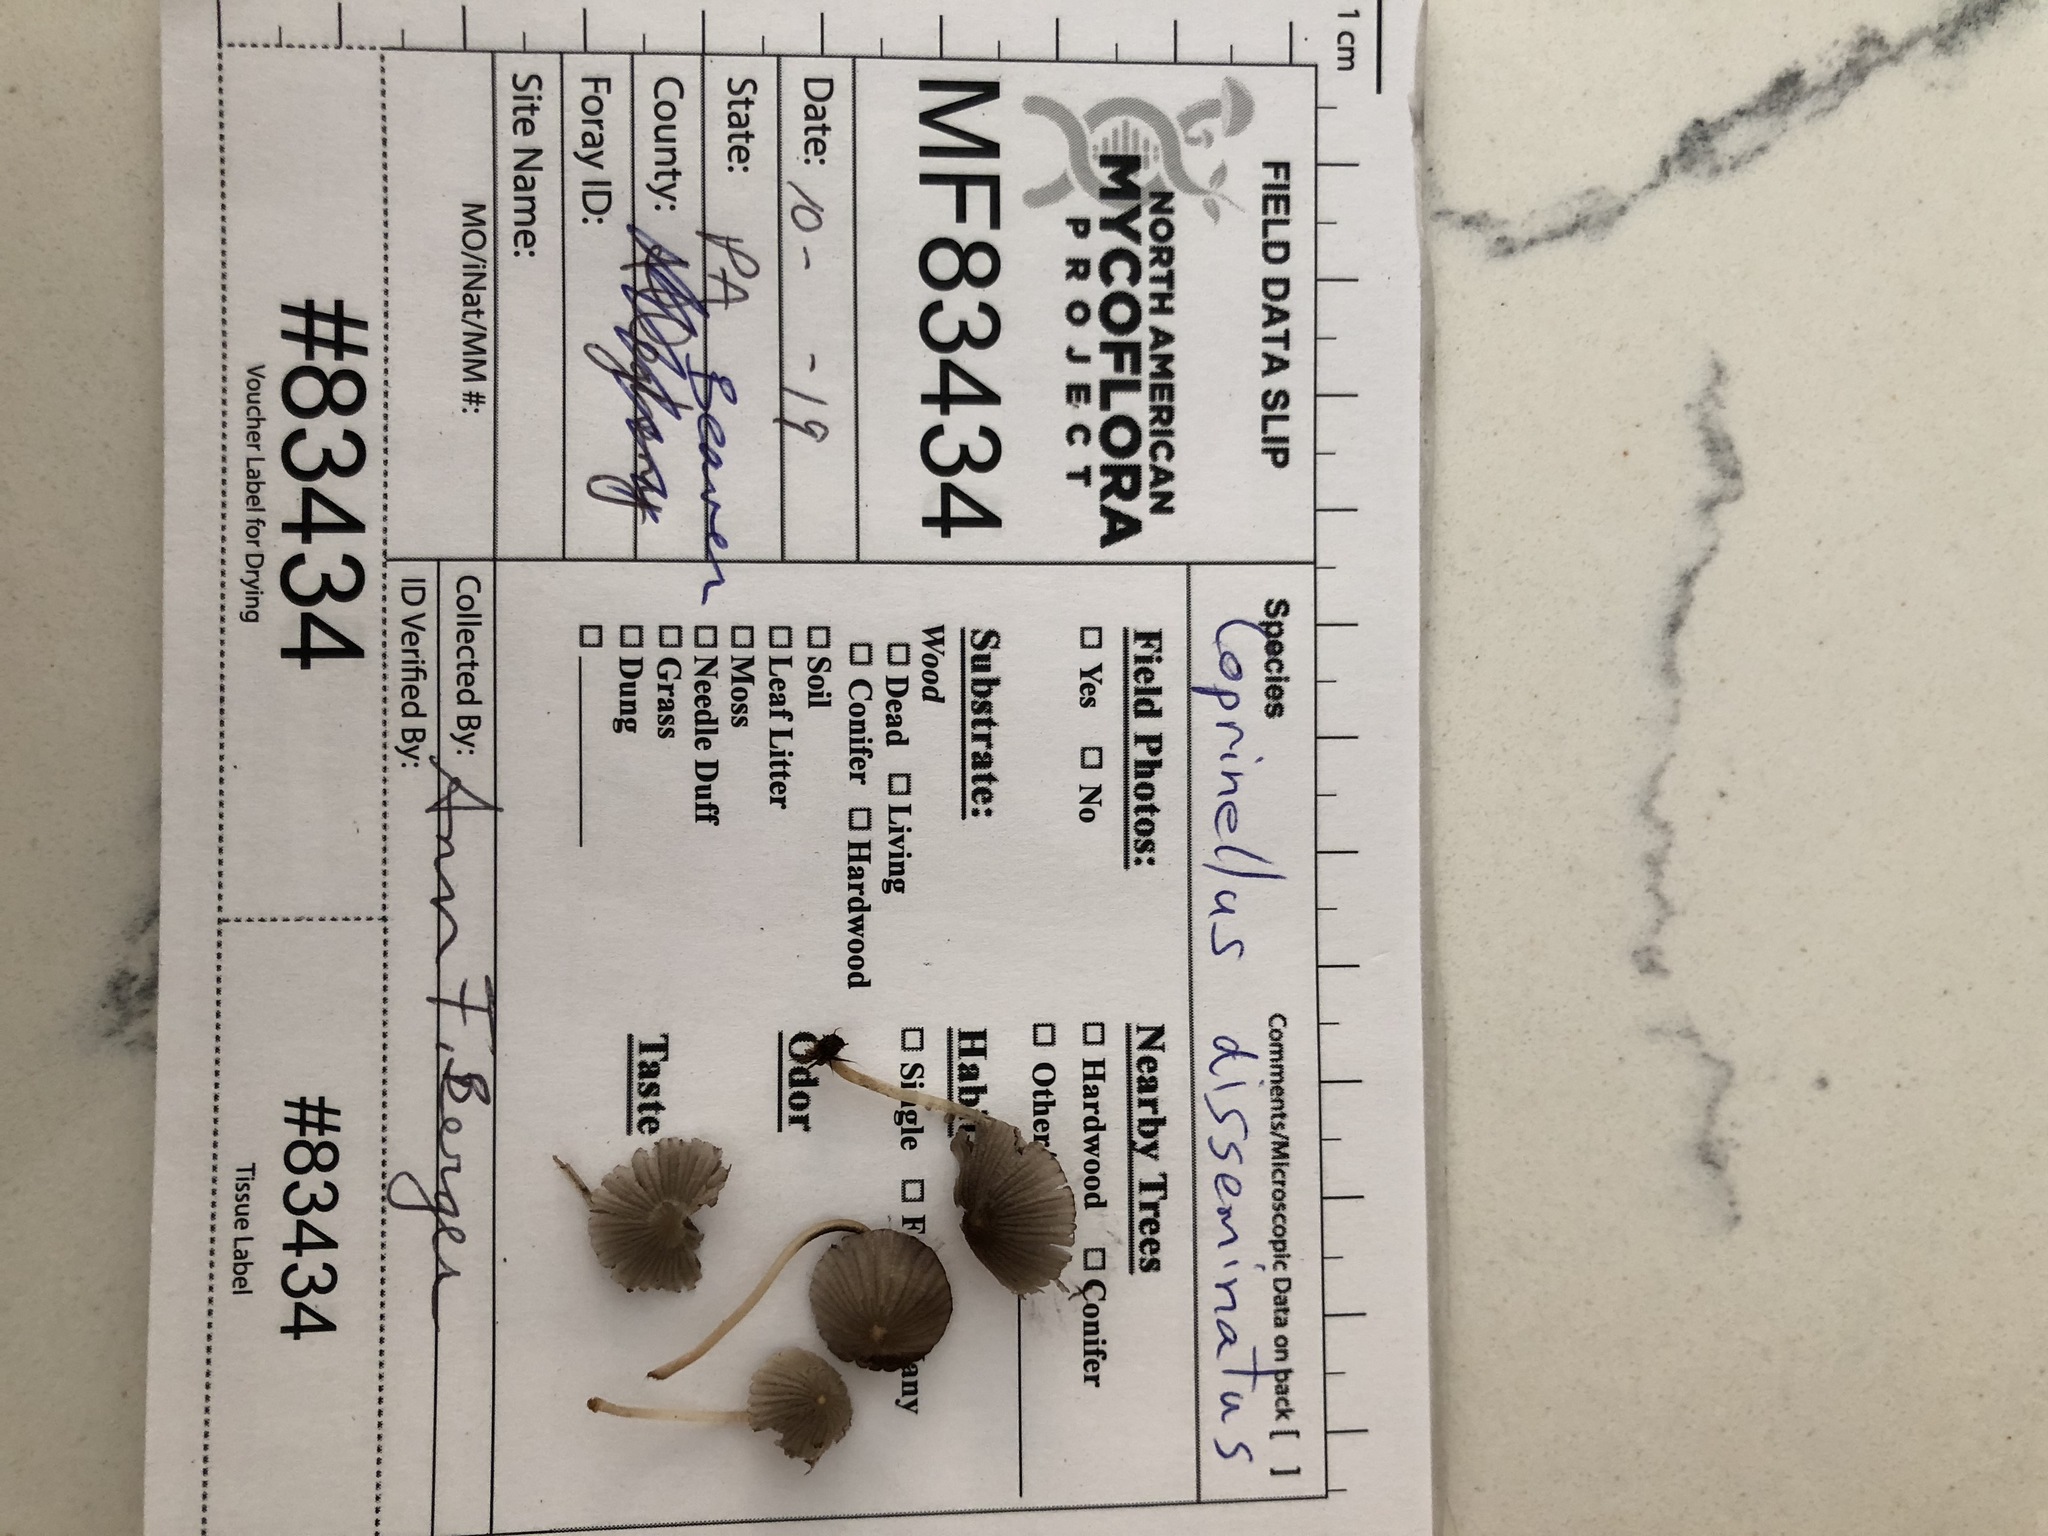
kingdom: Fungi
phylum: Basidiomycota
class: Agaricomycetes
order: Agaricales
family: Psathyrellaceae
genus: Coprinellus
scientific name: Coprinellus disseminatus
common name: Fairies' bonnets
